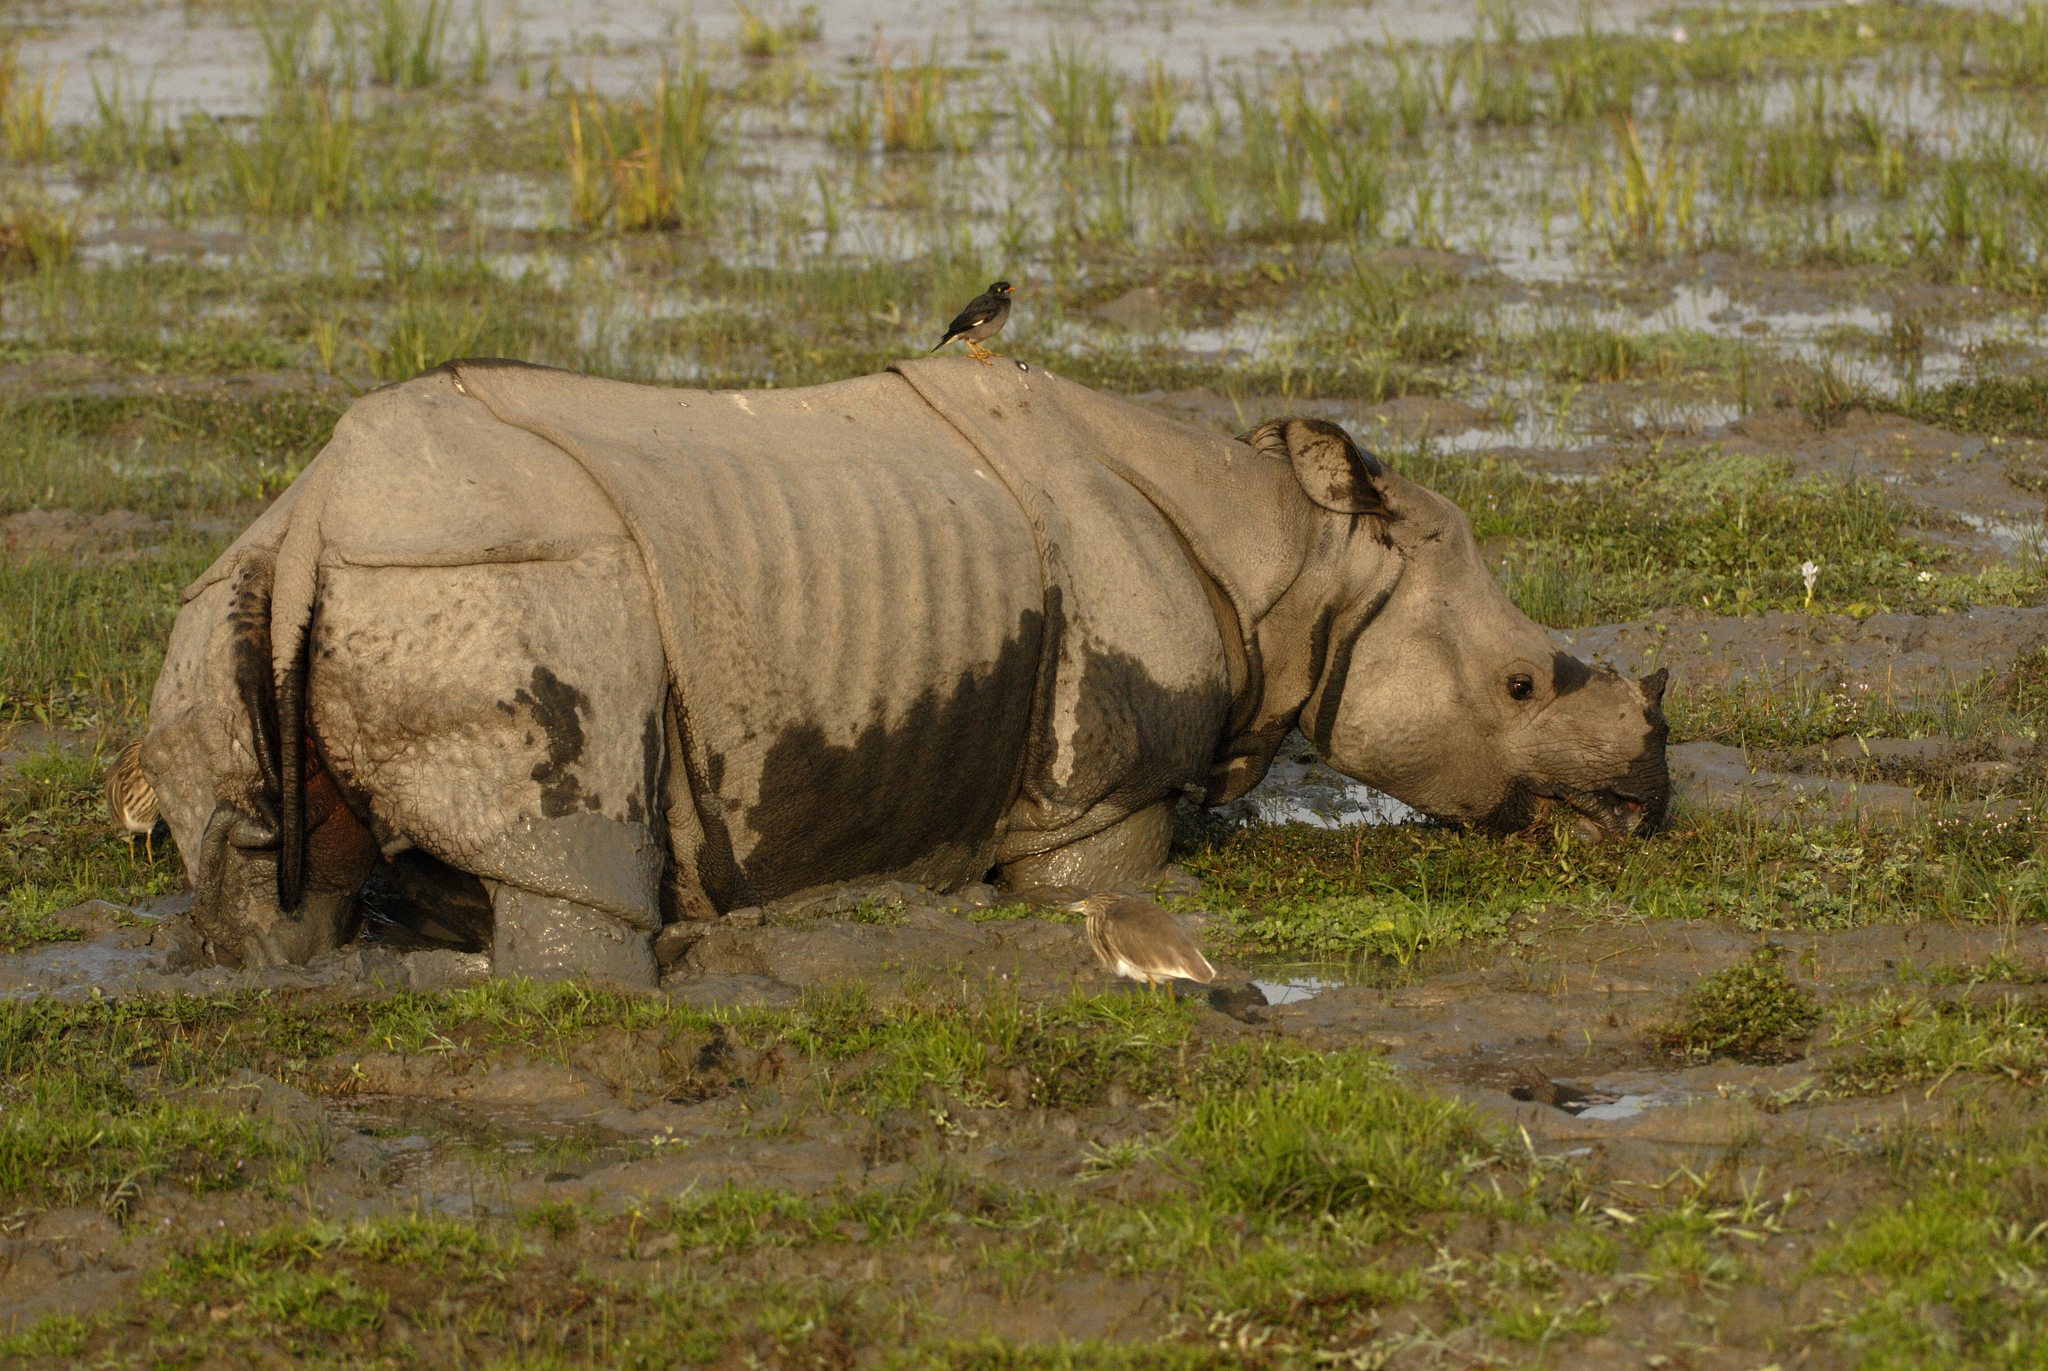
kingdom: Animalia
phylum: Chordata
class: Mammalia
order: Perissodactyla
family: Rhinocerotidae
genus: Rhinoceros
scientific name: Rhinoceros unicornis
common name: Indian rhinoceros
